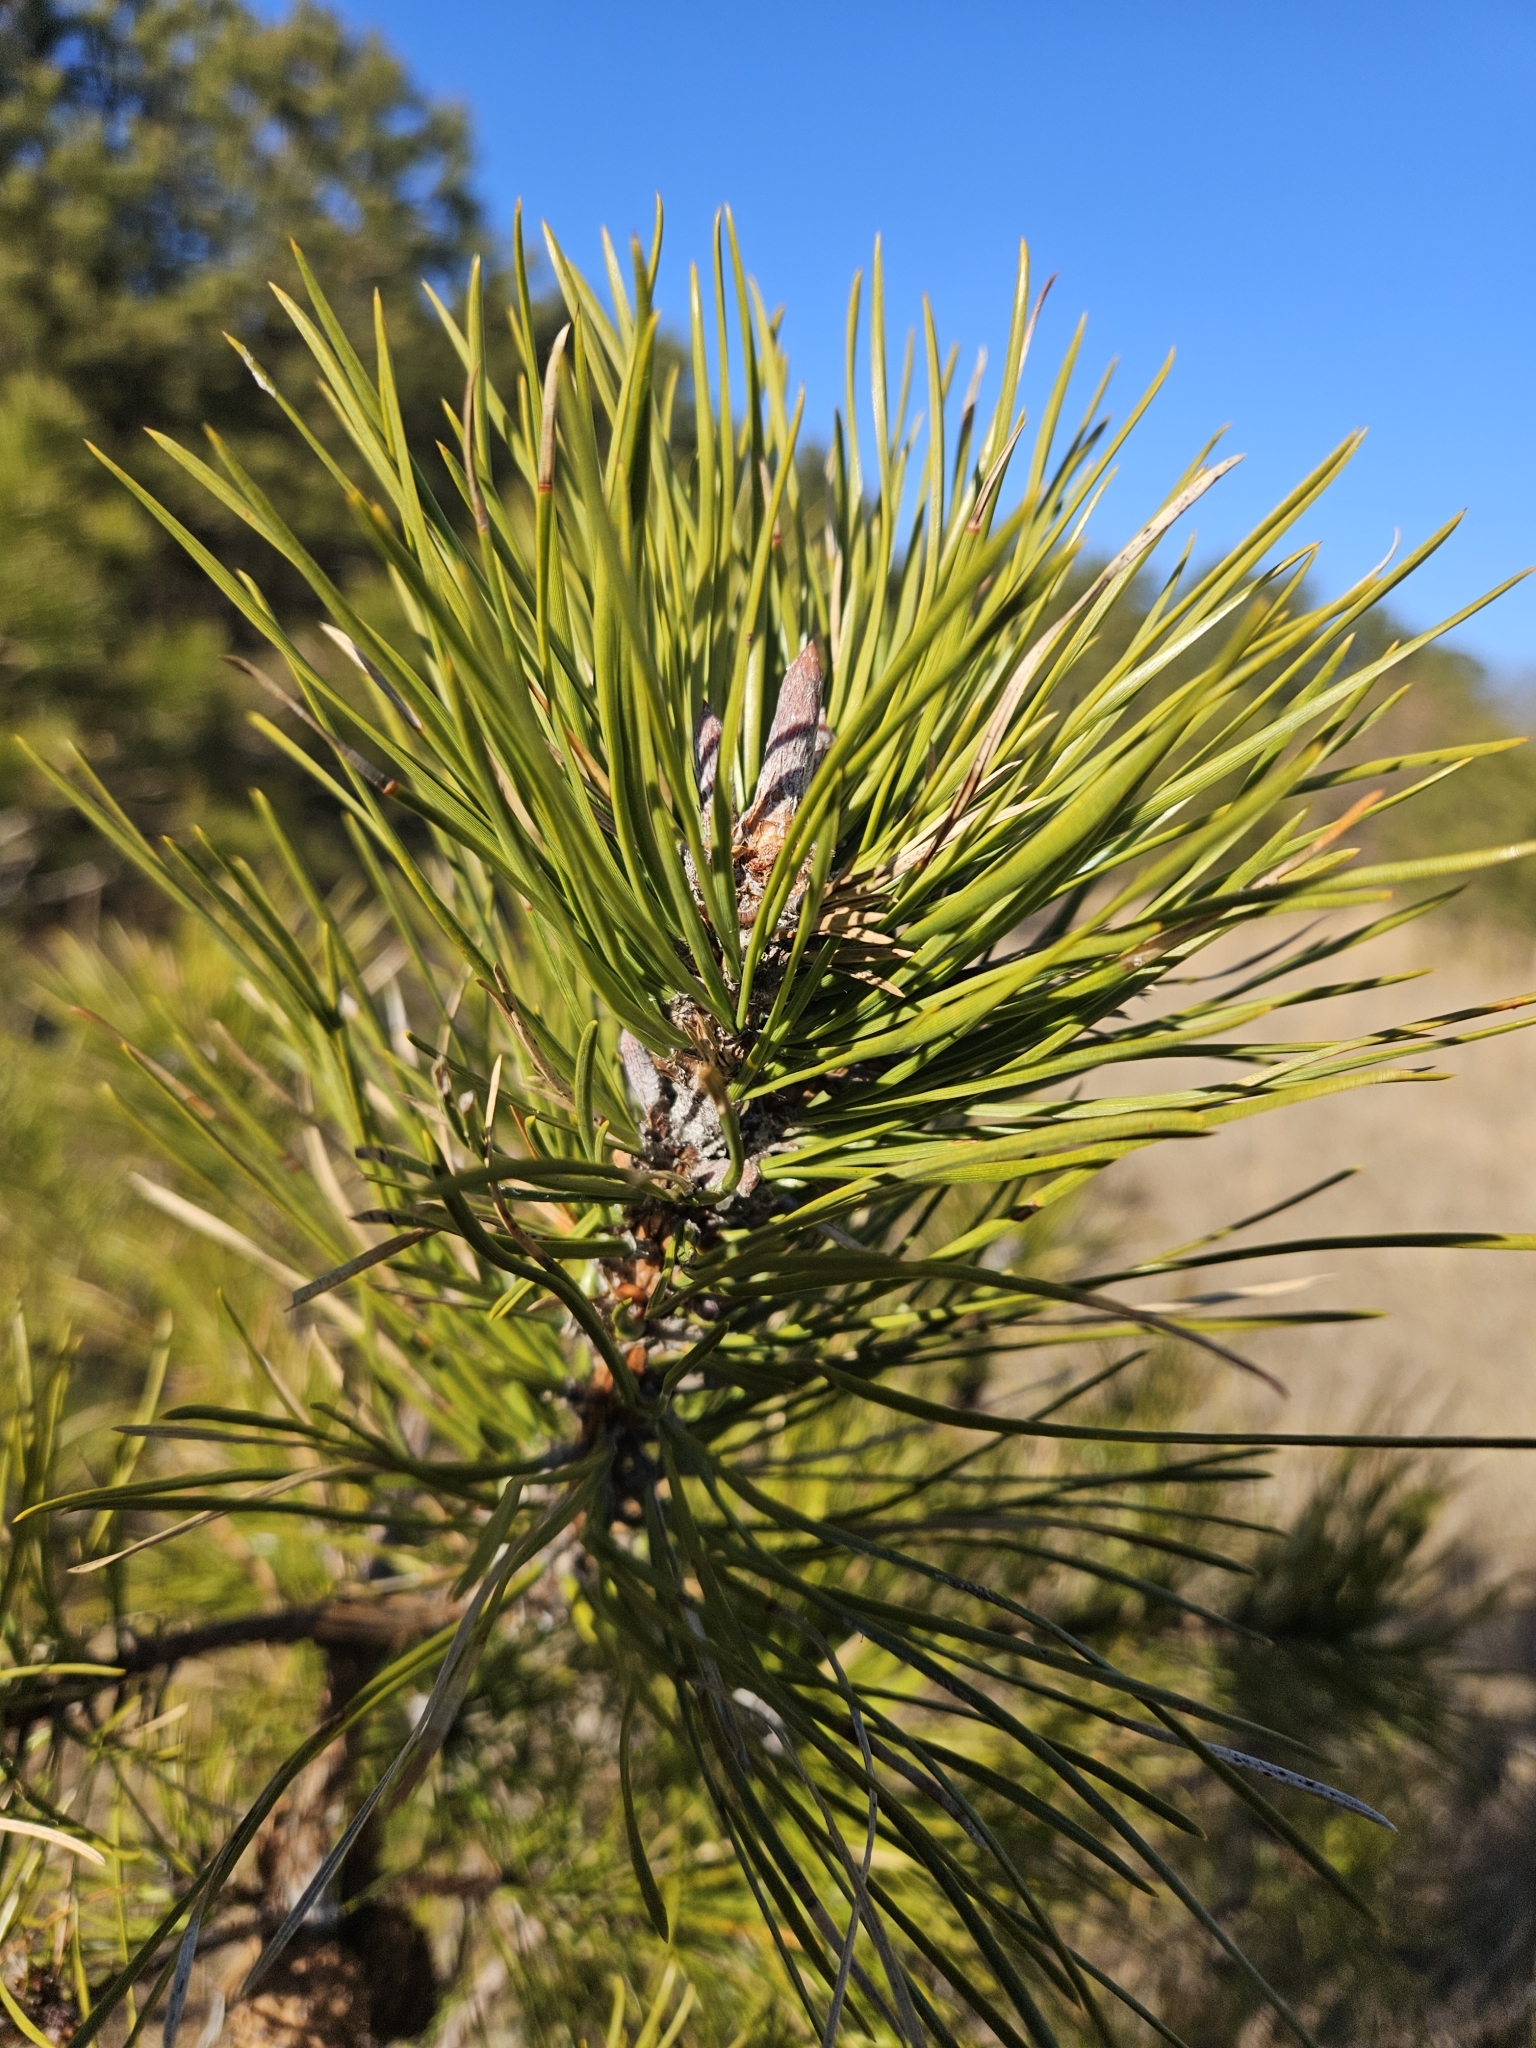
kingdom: Plantae
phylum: Tracheophyta
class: Pinopsida
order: Pinales
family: Pinaceae
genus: Pinus
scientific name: Pinus rigida
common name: Pitch pine
